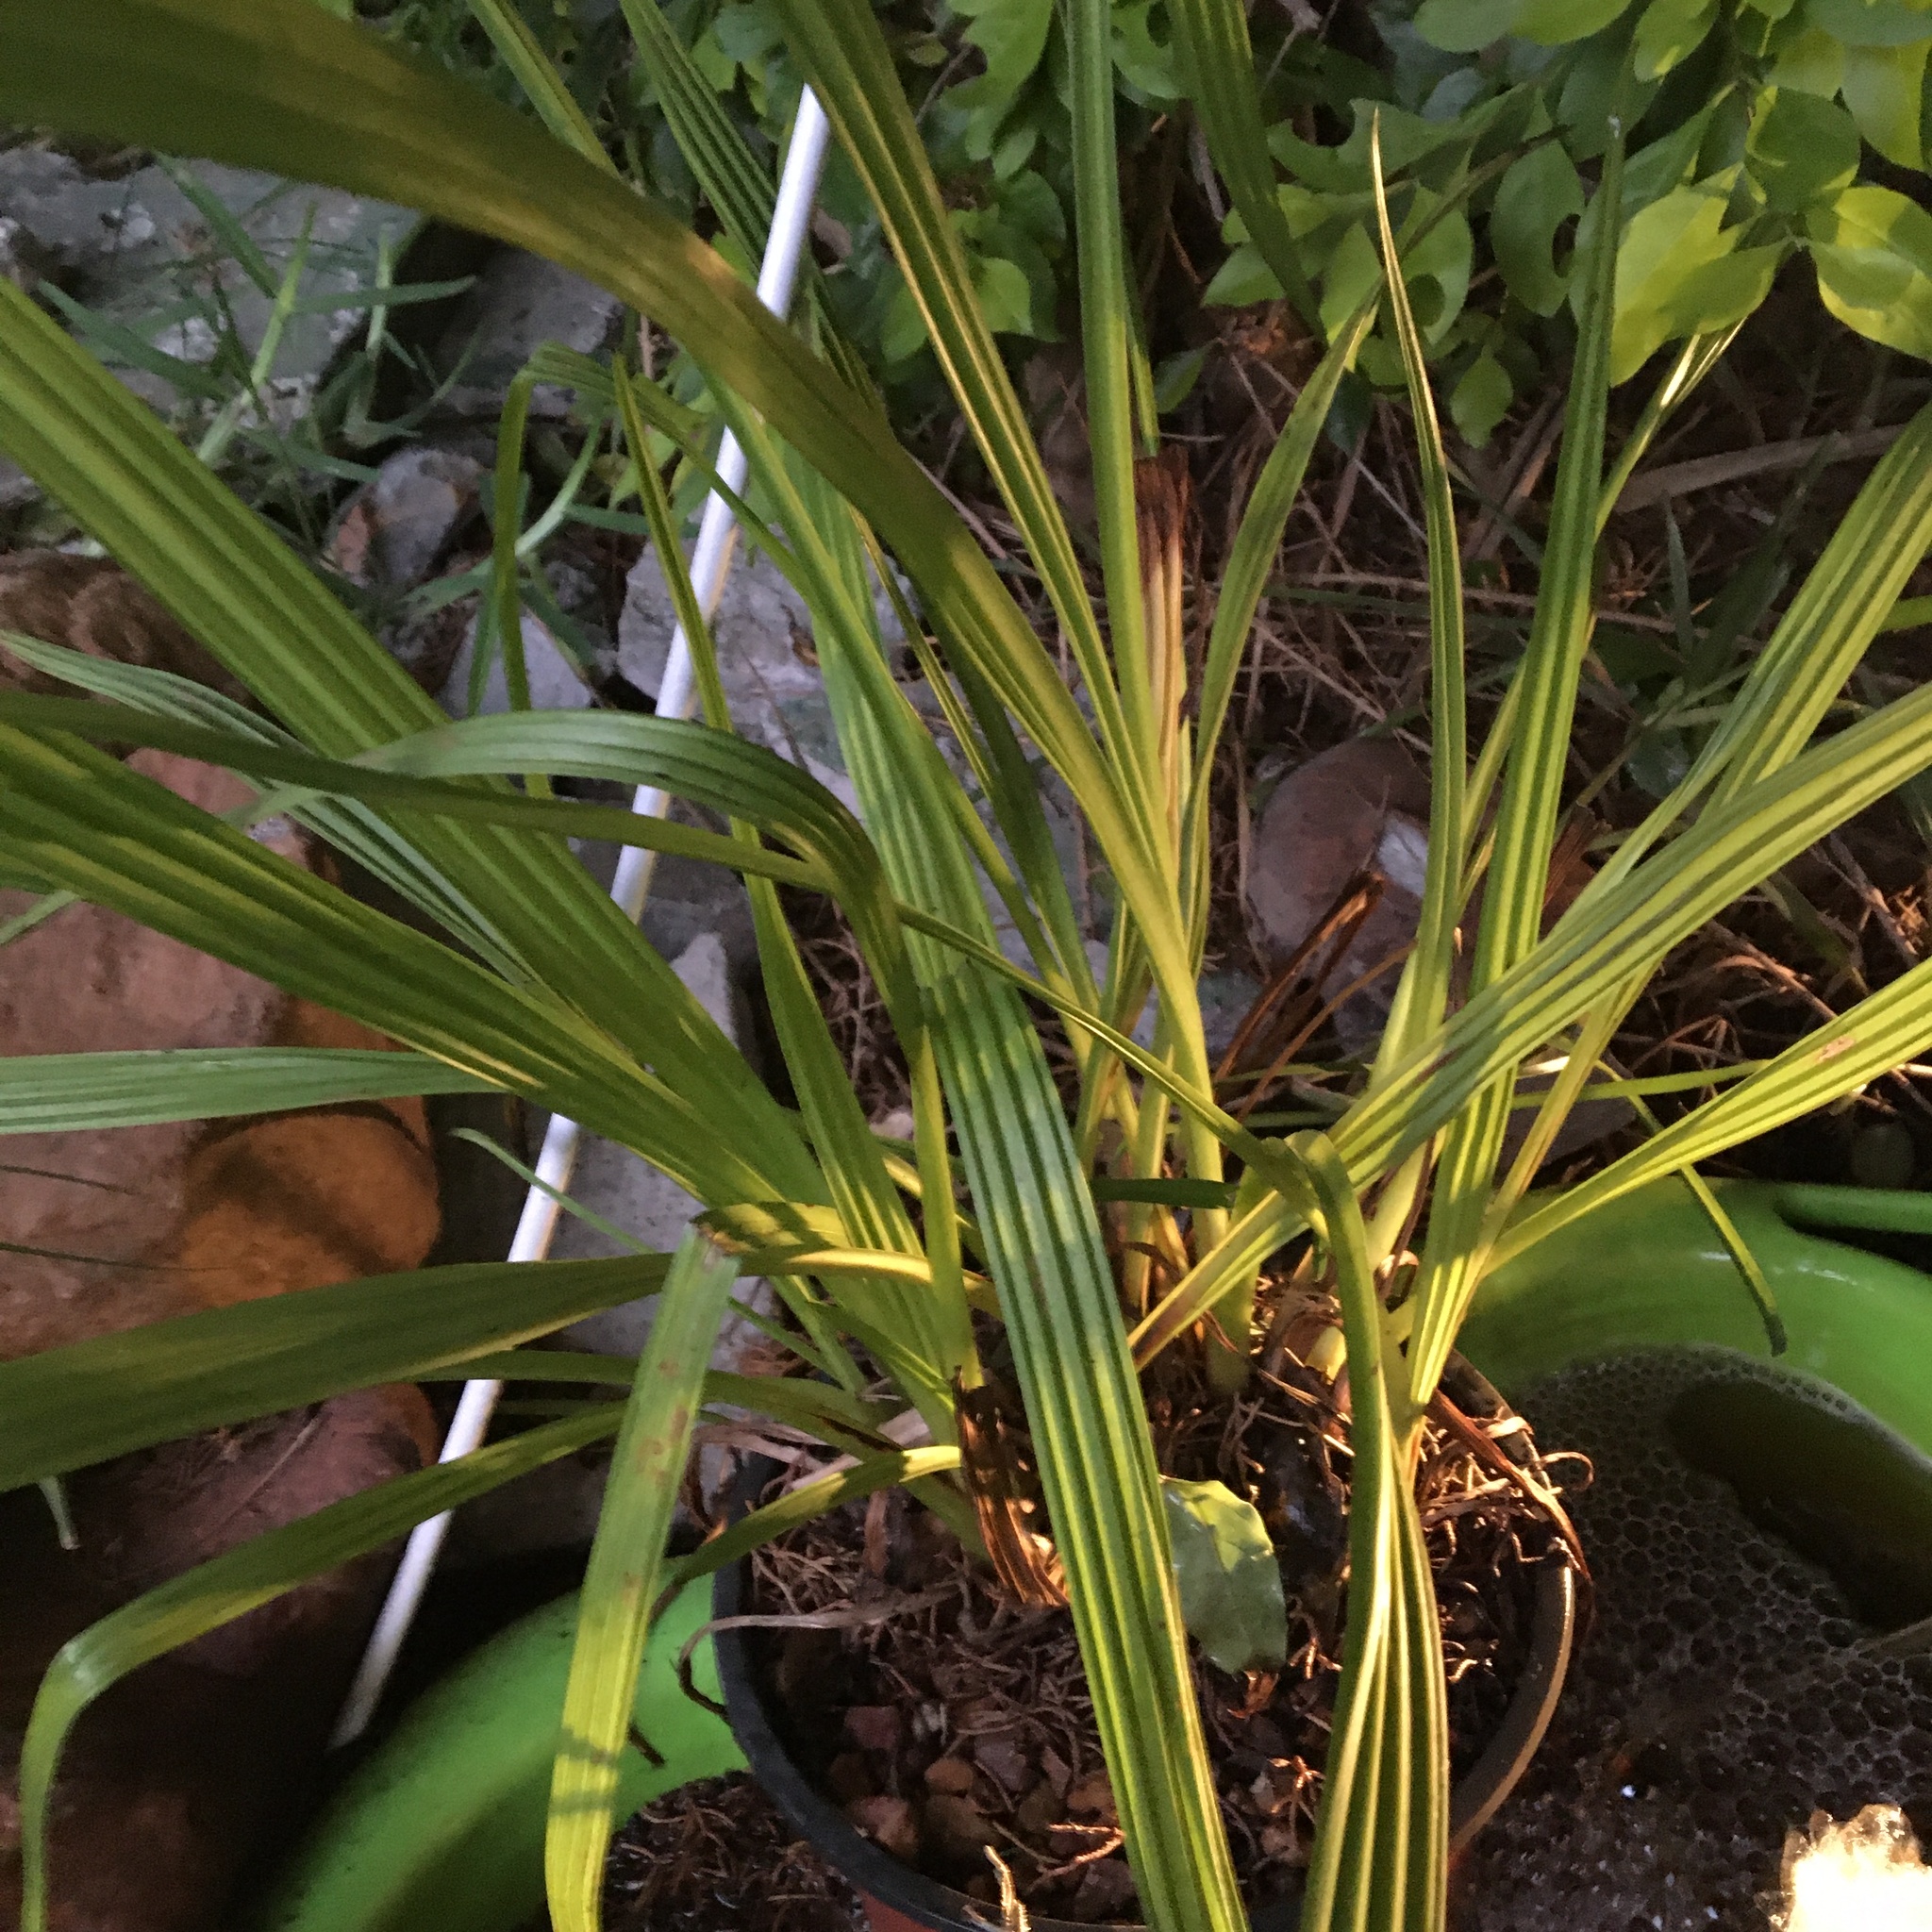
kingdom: Plantae
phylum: Tracheophyta
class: Liliopsida
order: Commelinales
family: Haemodoraceae
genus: Wachendorfia
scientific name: Wachendorfia thyrsiflora
